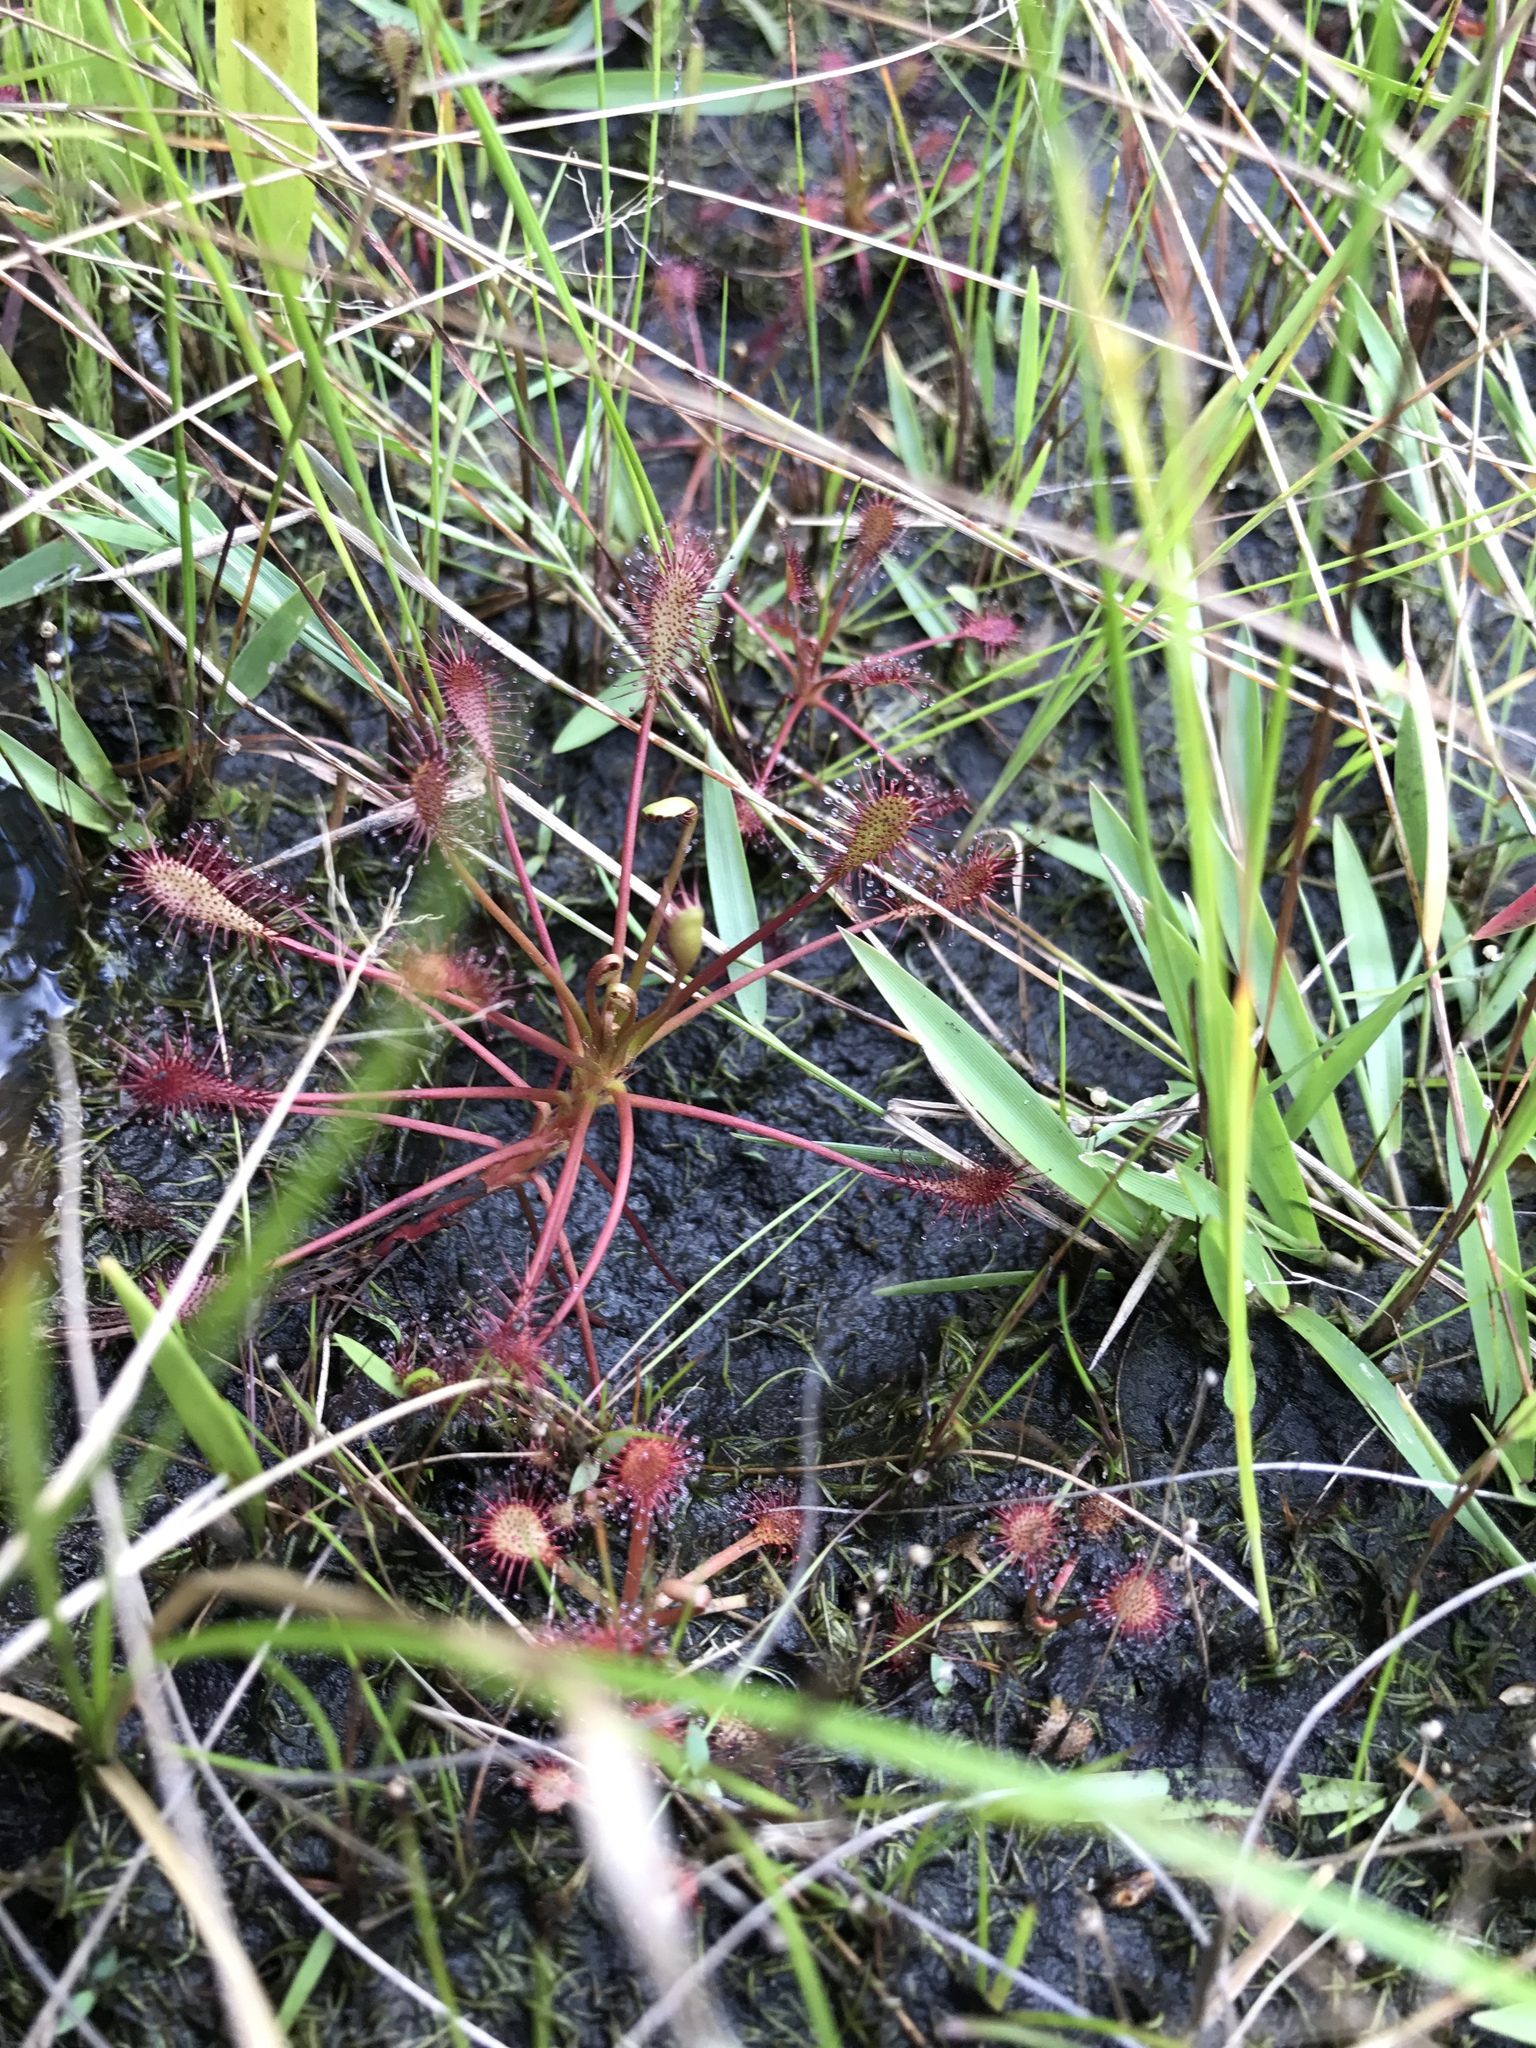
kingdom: Plantae
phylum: Tracheophyta
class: Magnoliopsida
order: Caryophyllales
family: Droseraceae
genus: Drosera
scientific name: Drosera intermedia
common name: Oblong-leaved sundew
